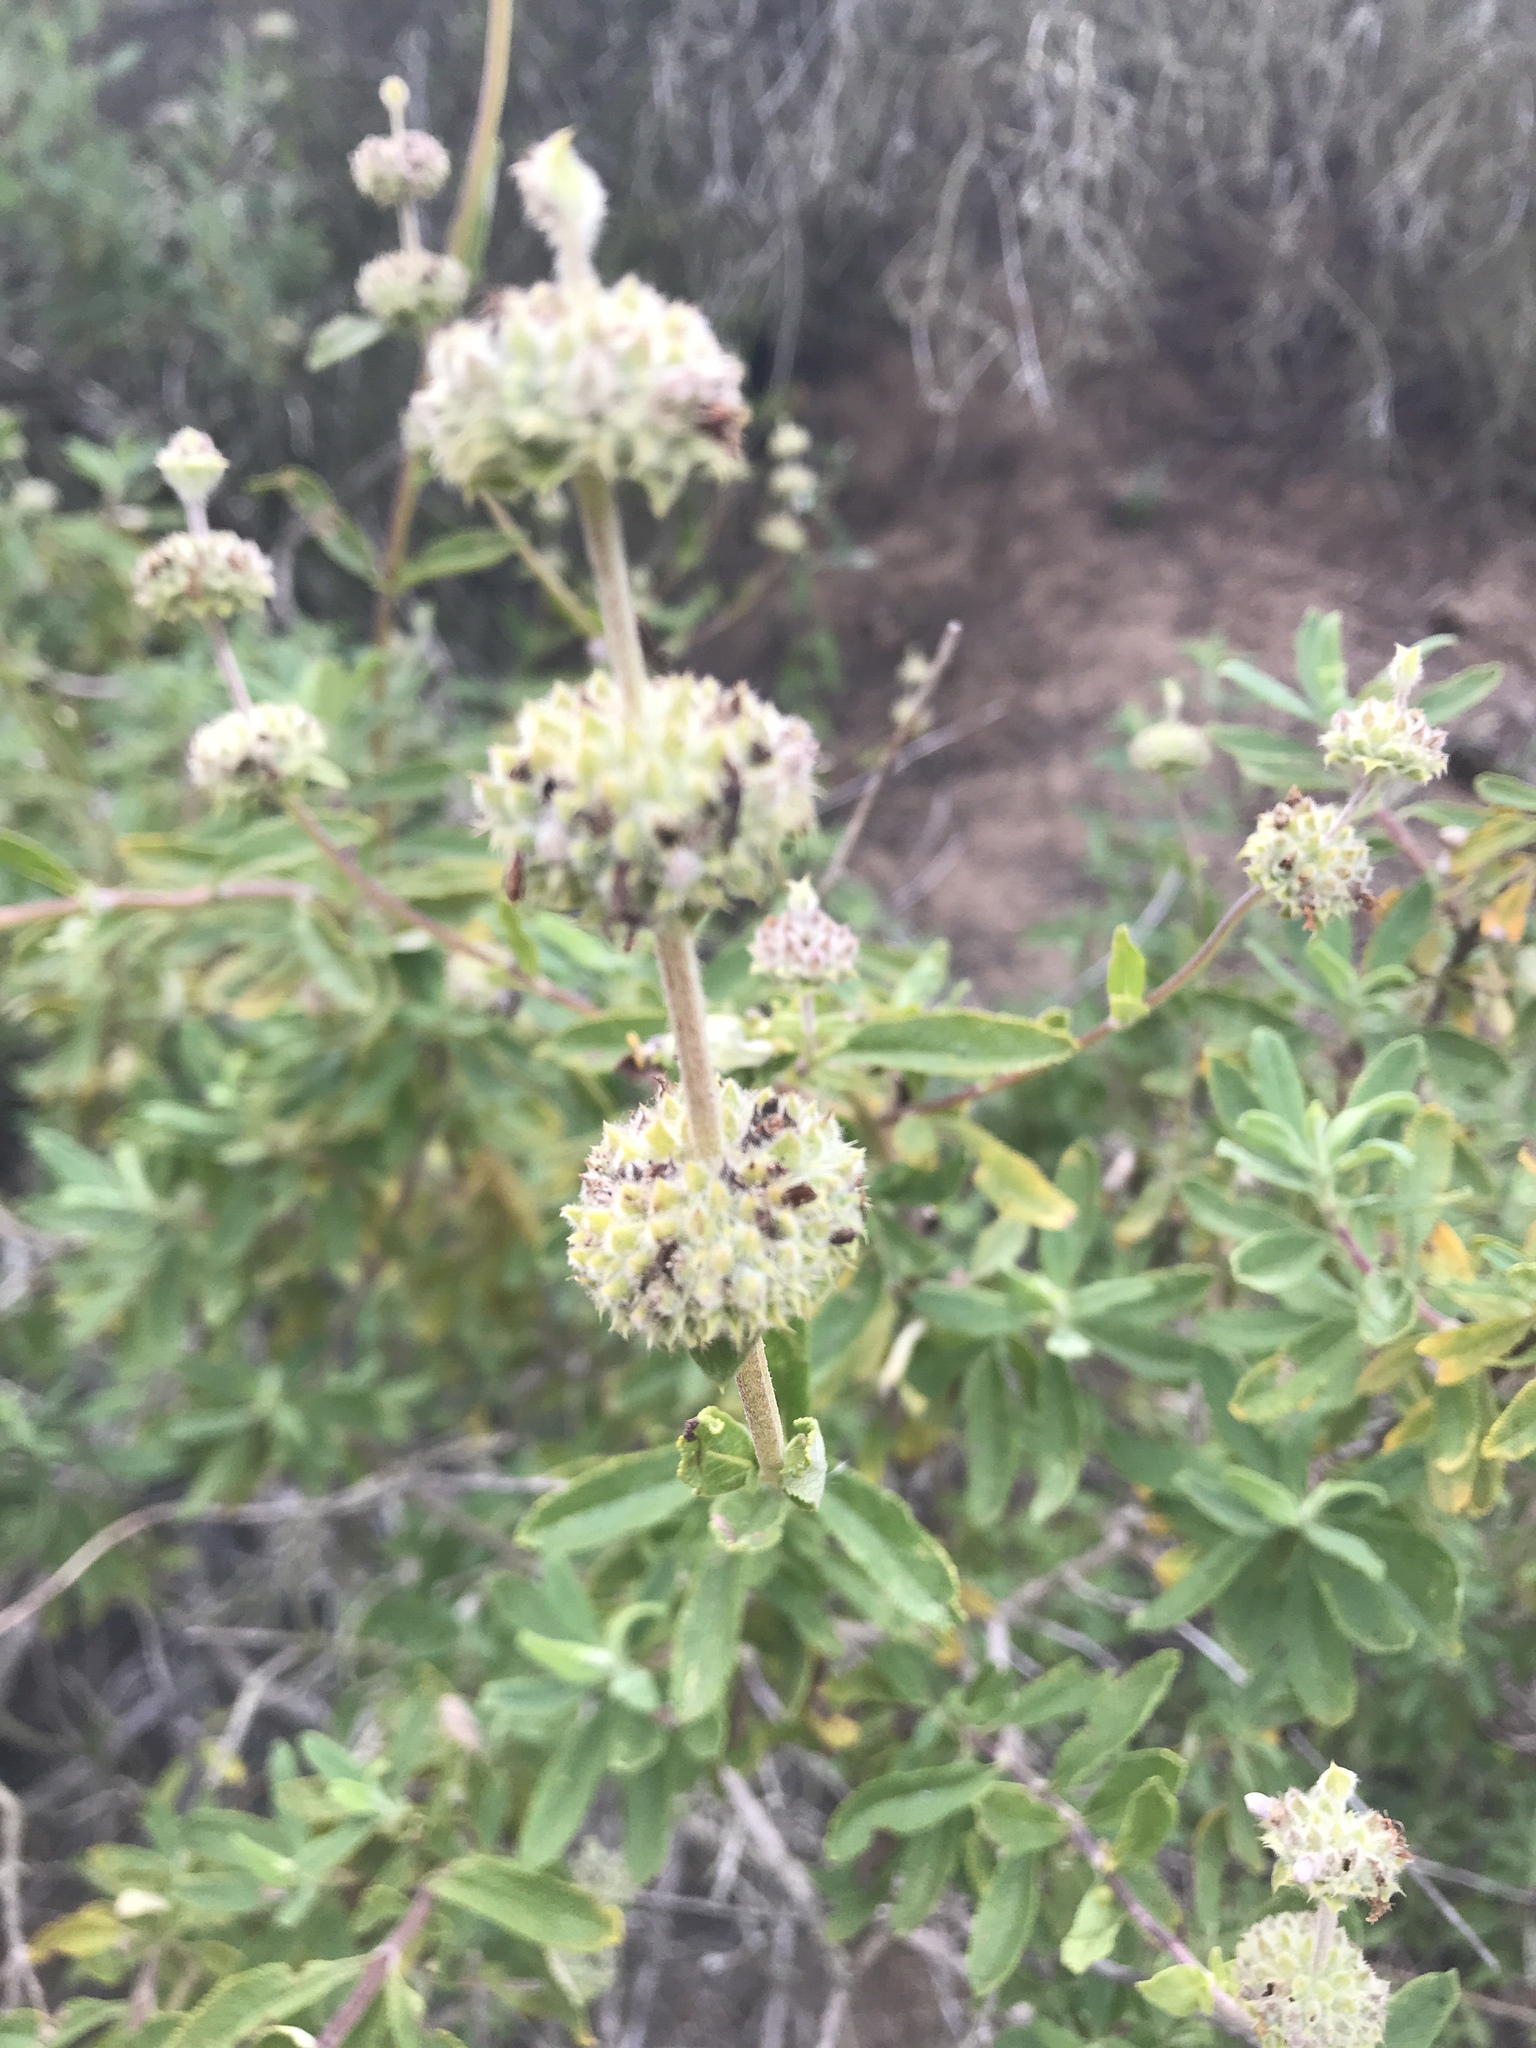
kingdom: Plantae
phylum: Tracheophyta
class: Magnoliopsida
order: Lamiales
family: Lamiaceae
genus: Salvia
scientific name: Salvia mellifera
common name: Black sage
